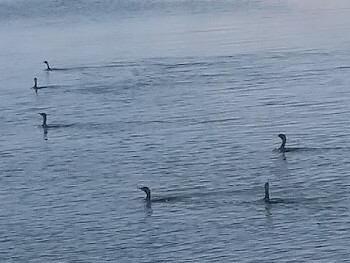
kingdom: Animalia
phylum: Chordata
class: Aves
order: Suliformes
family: Phalacrocoracidae
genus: Phalacrocorax
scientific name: Phalacrocorax auritus
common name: Double-crested cormorant
